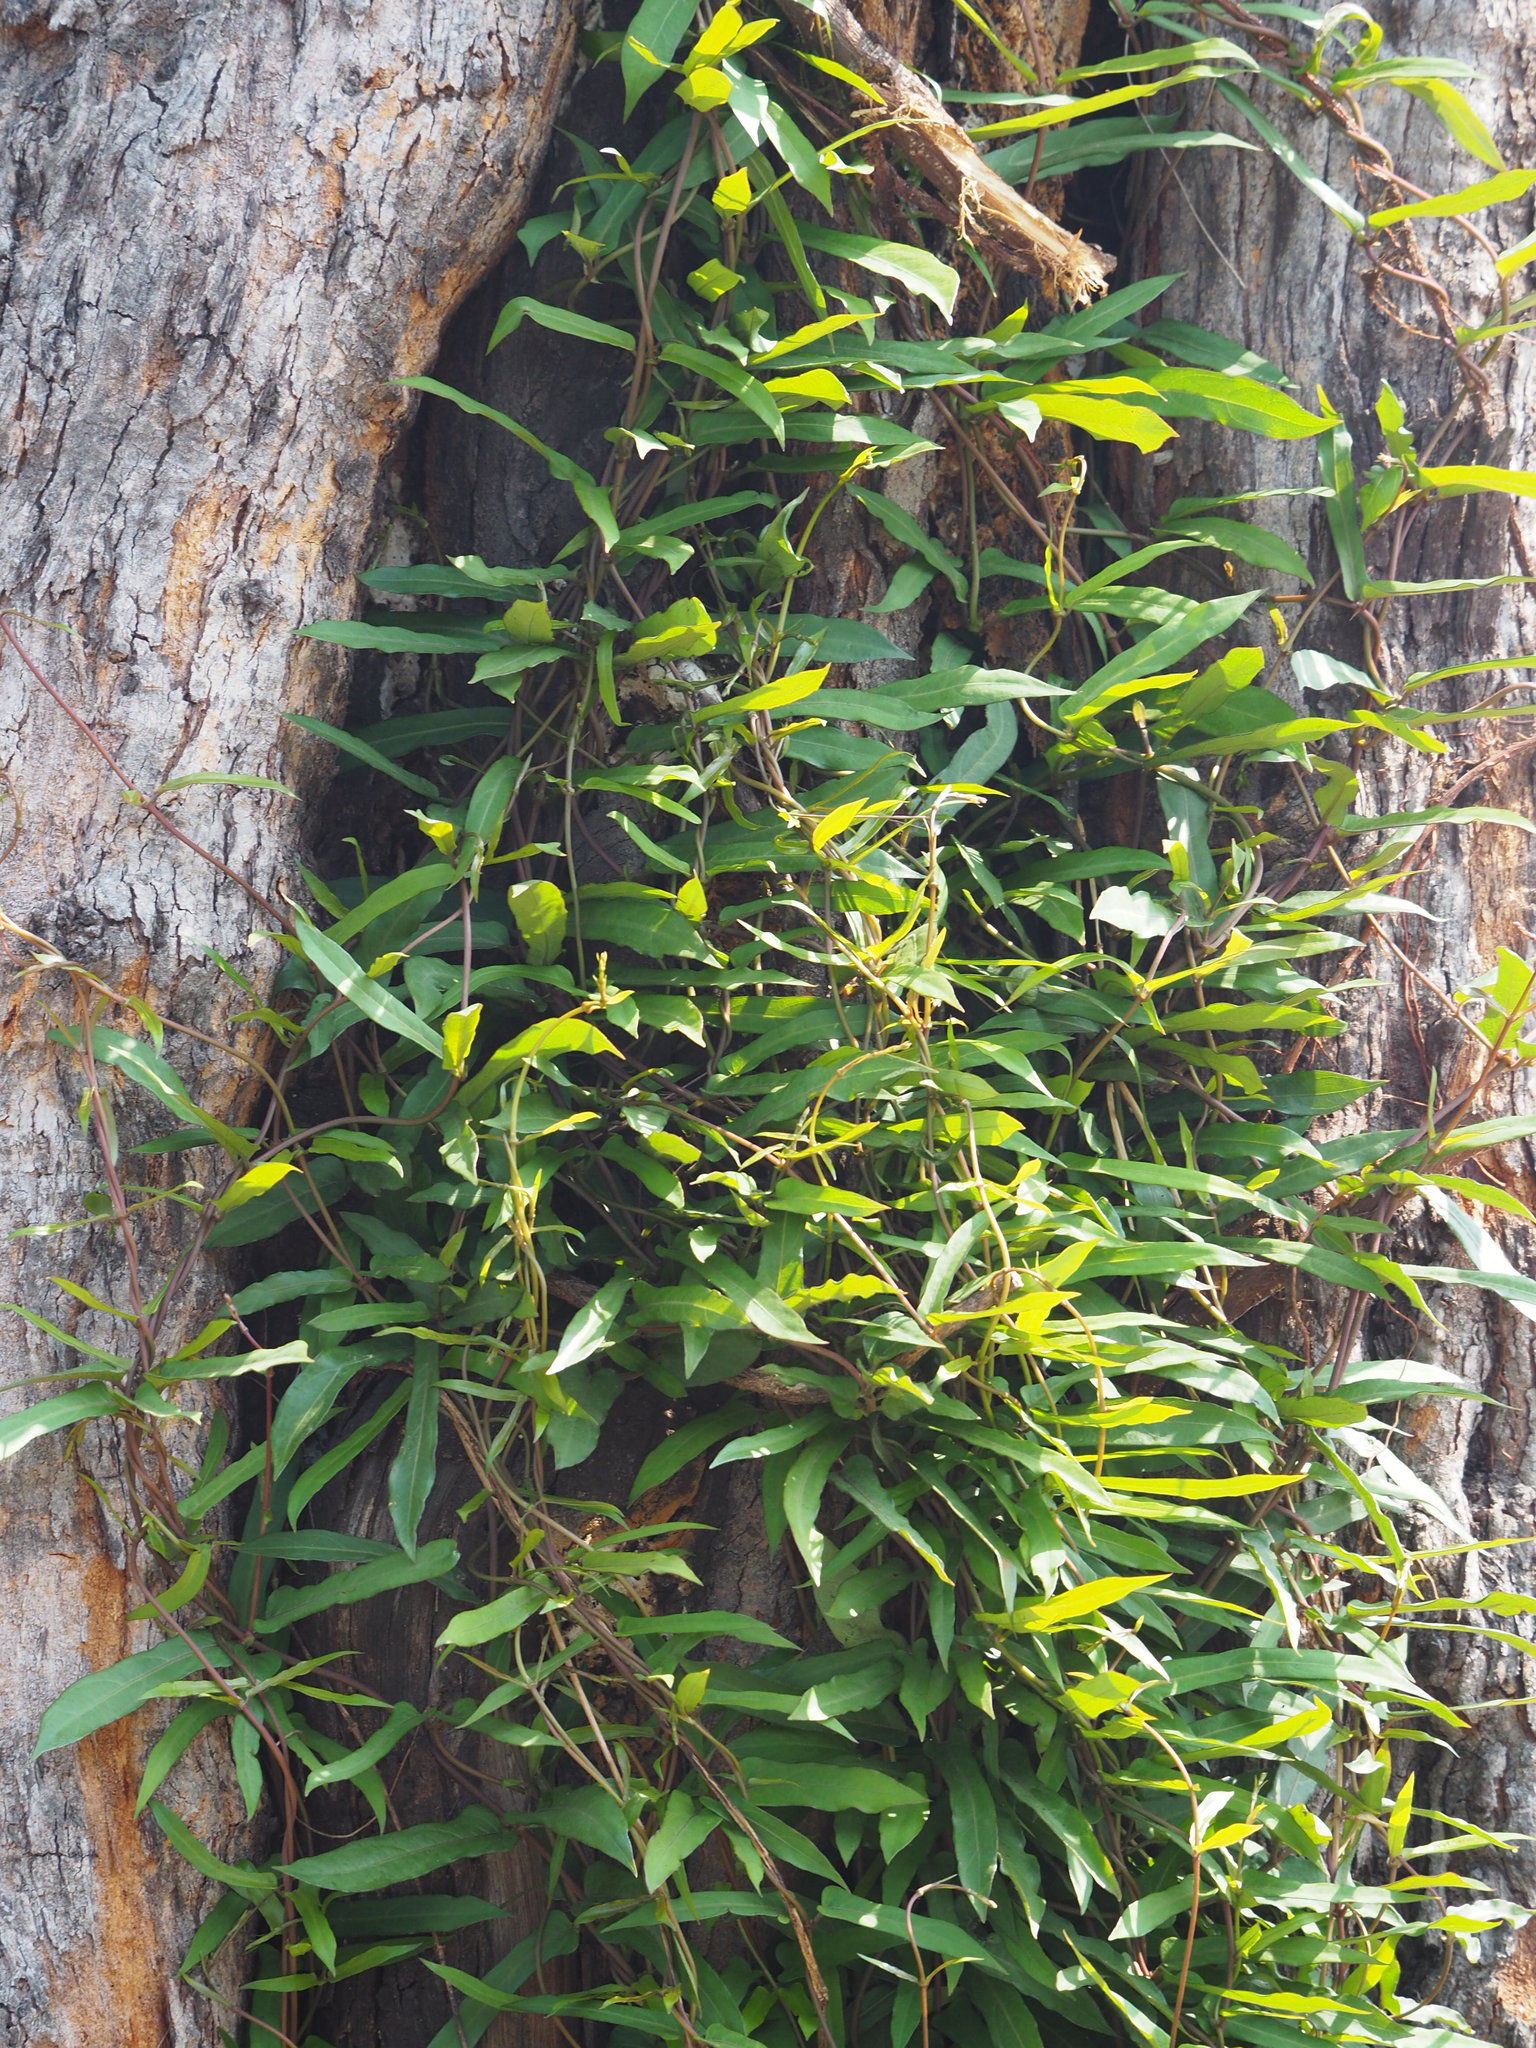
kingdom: Plantae
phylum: Tracheophyta
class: Magnoliopsida
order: Gentianales
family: Rubiaceae
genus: Paederia
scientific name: Paederia foetida
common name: Stinkvine
